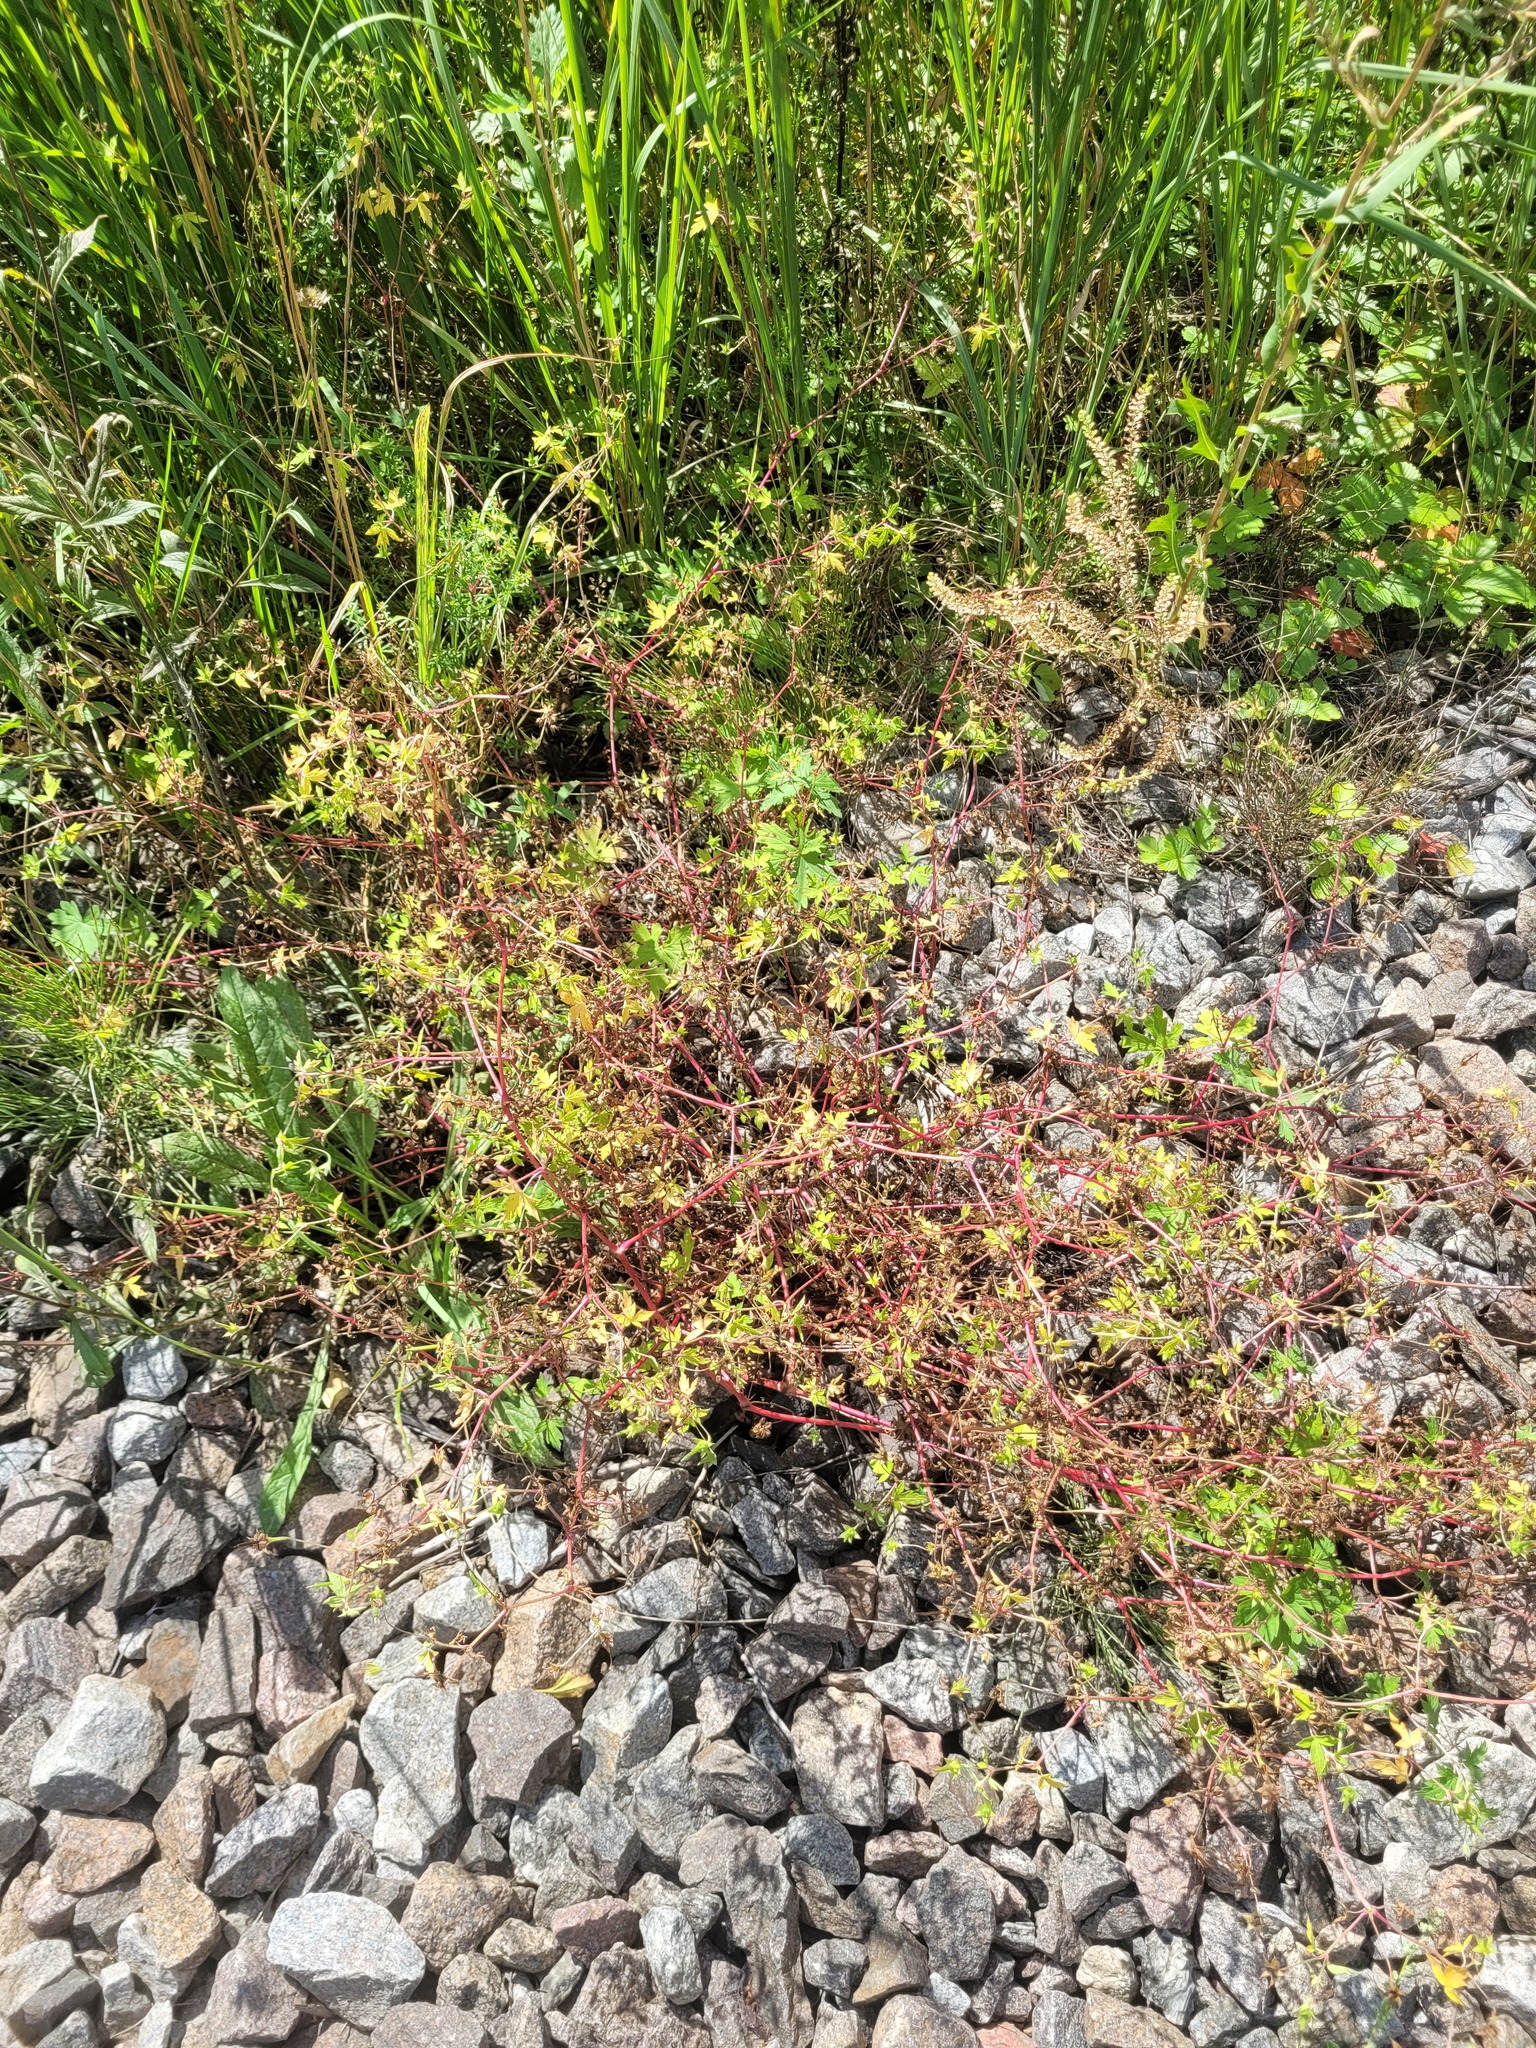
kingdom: Plantae
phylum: Tracheophyta
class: Magnoliopsida
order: Geraniales
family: Geraniaceae
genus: Geranium
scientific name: Geranium sibiricum
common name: Siberian crane's-bill
